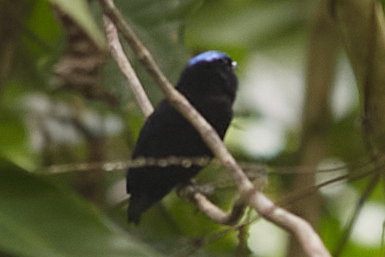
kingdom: Animalia
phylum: Chordata
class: Aves
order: Passeriformes
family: Pipridae
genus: Lepidothrix
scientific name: Lepidothrix coronata
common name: Blue-crowned manakin
